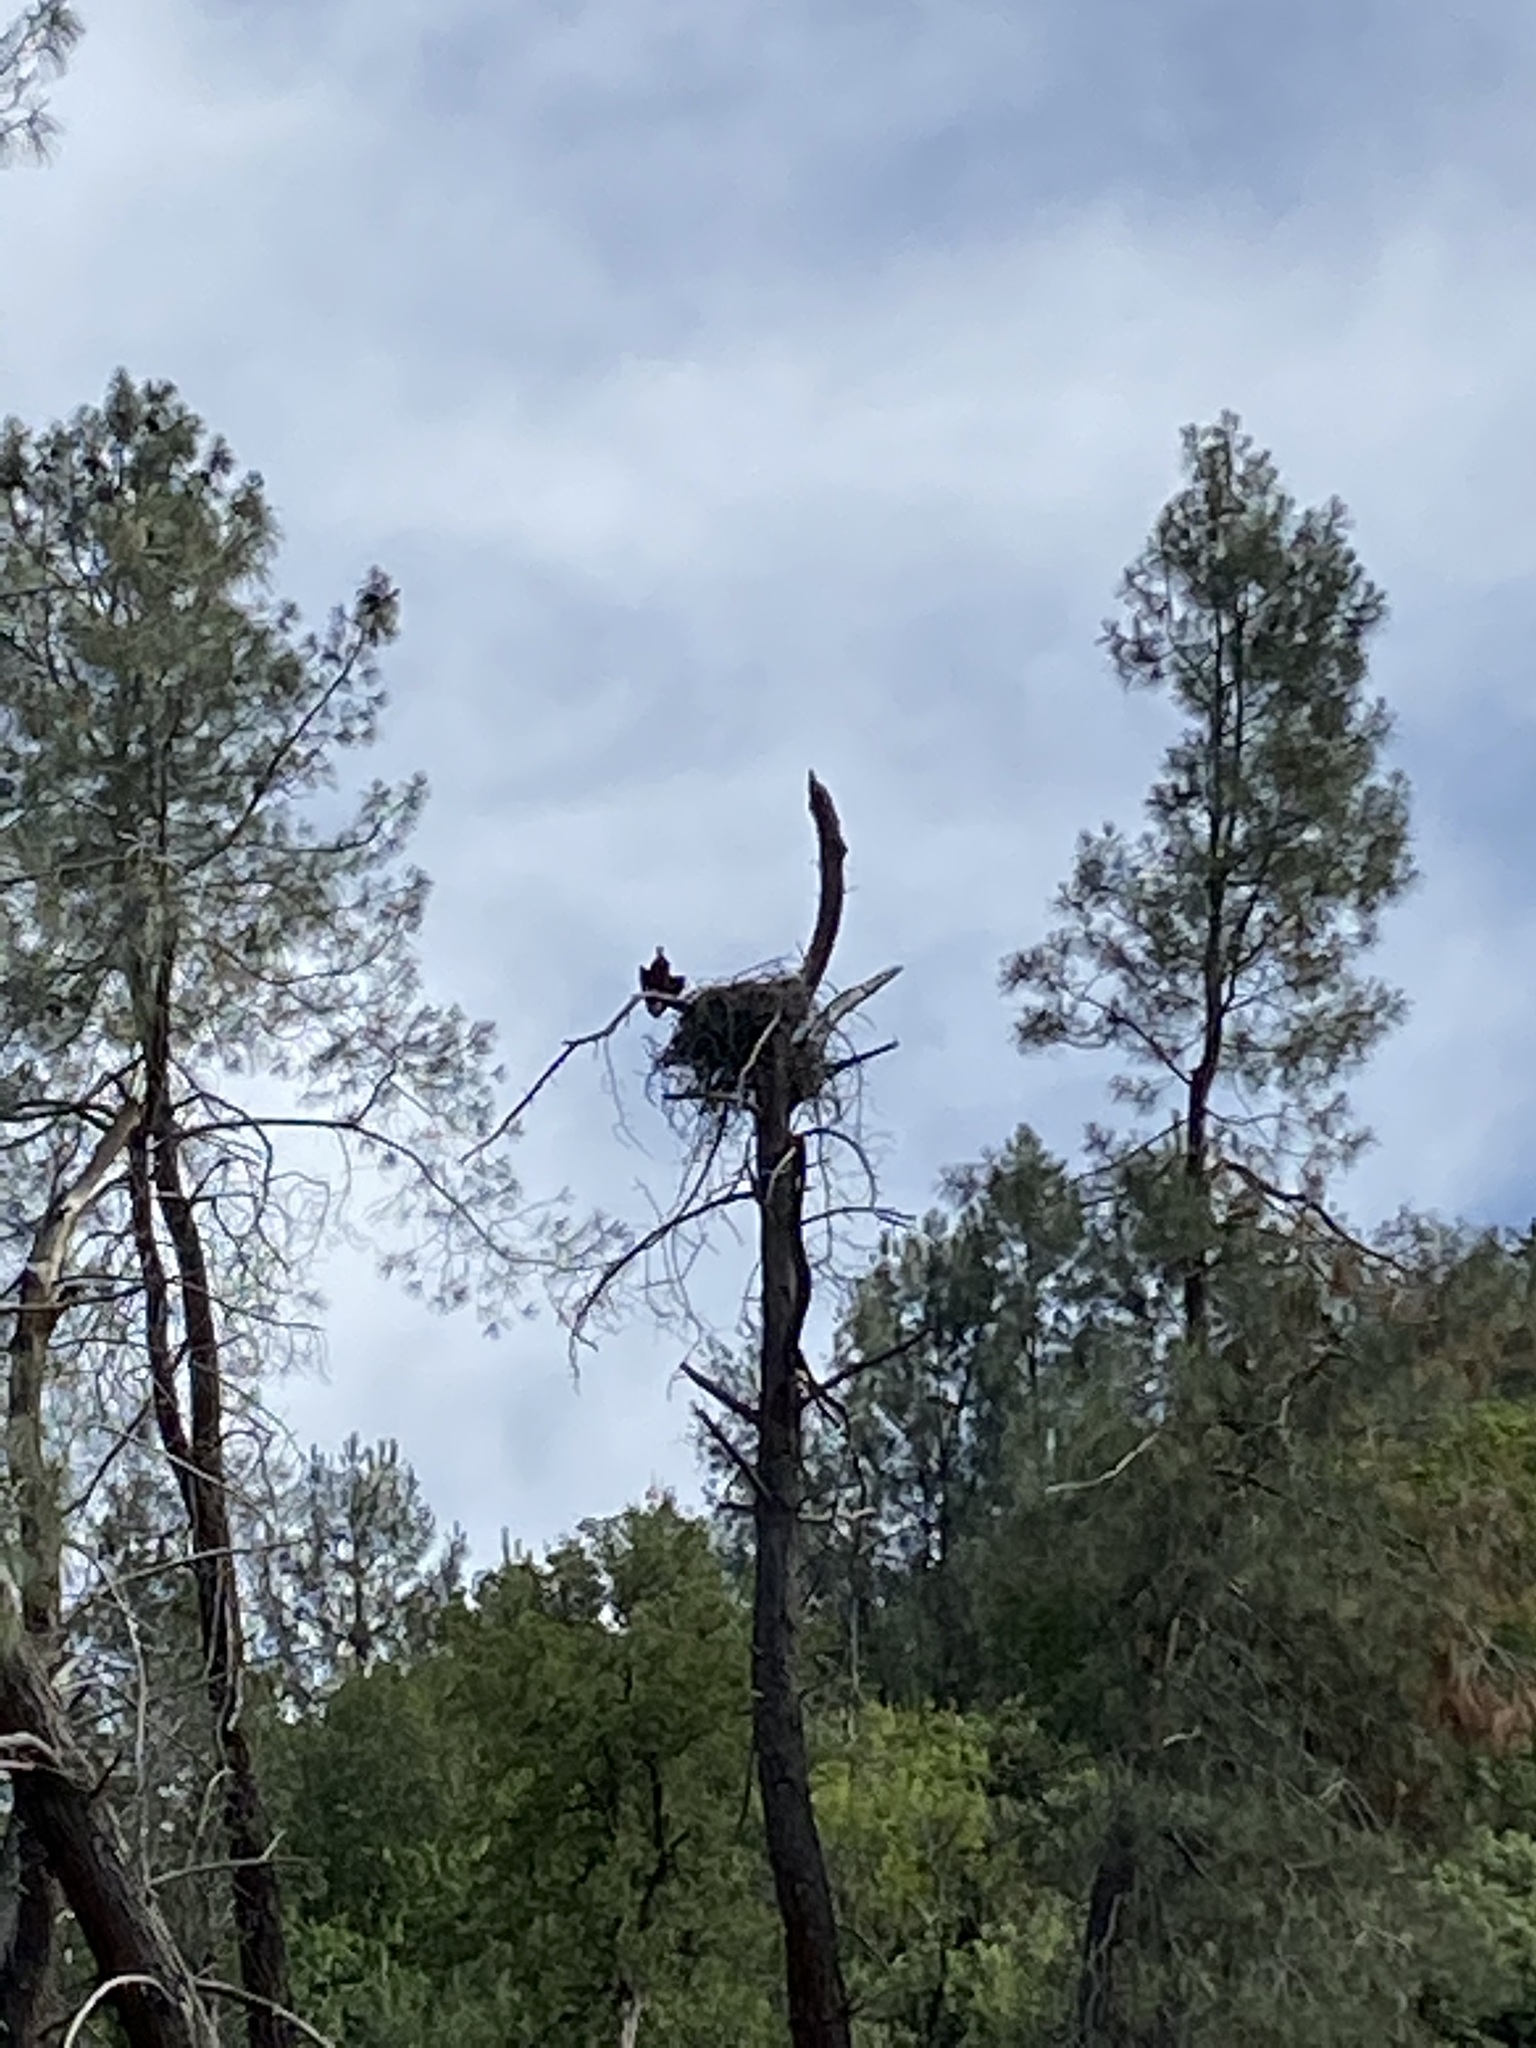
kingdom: Animalia
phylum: Chordata
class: Aves
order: Accipitriformes
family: Accipitridae
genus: Haliaeetus
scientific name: Haliaeetus leucocephalus
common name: Bald eagle
